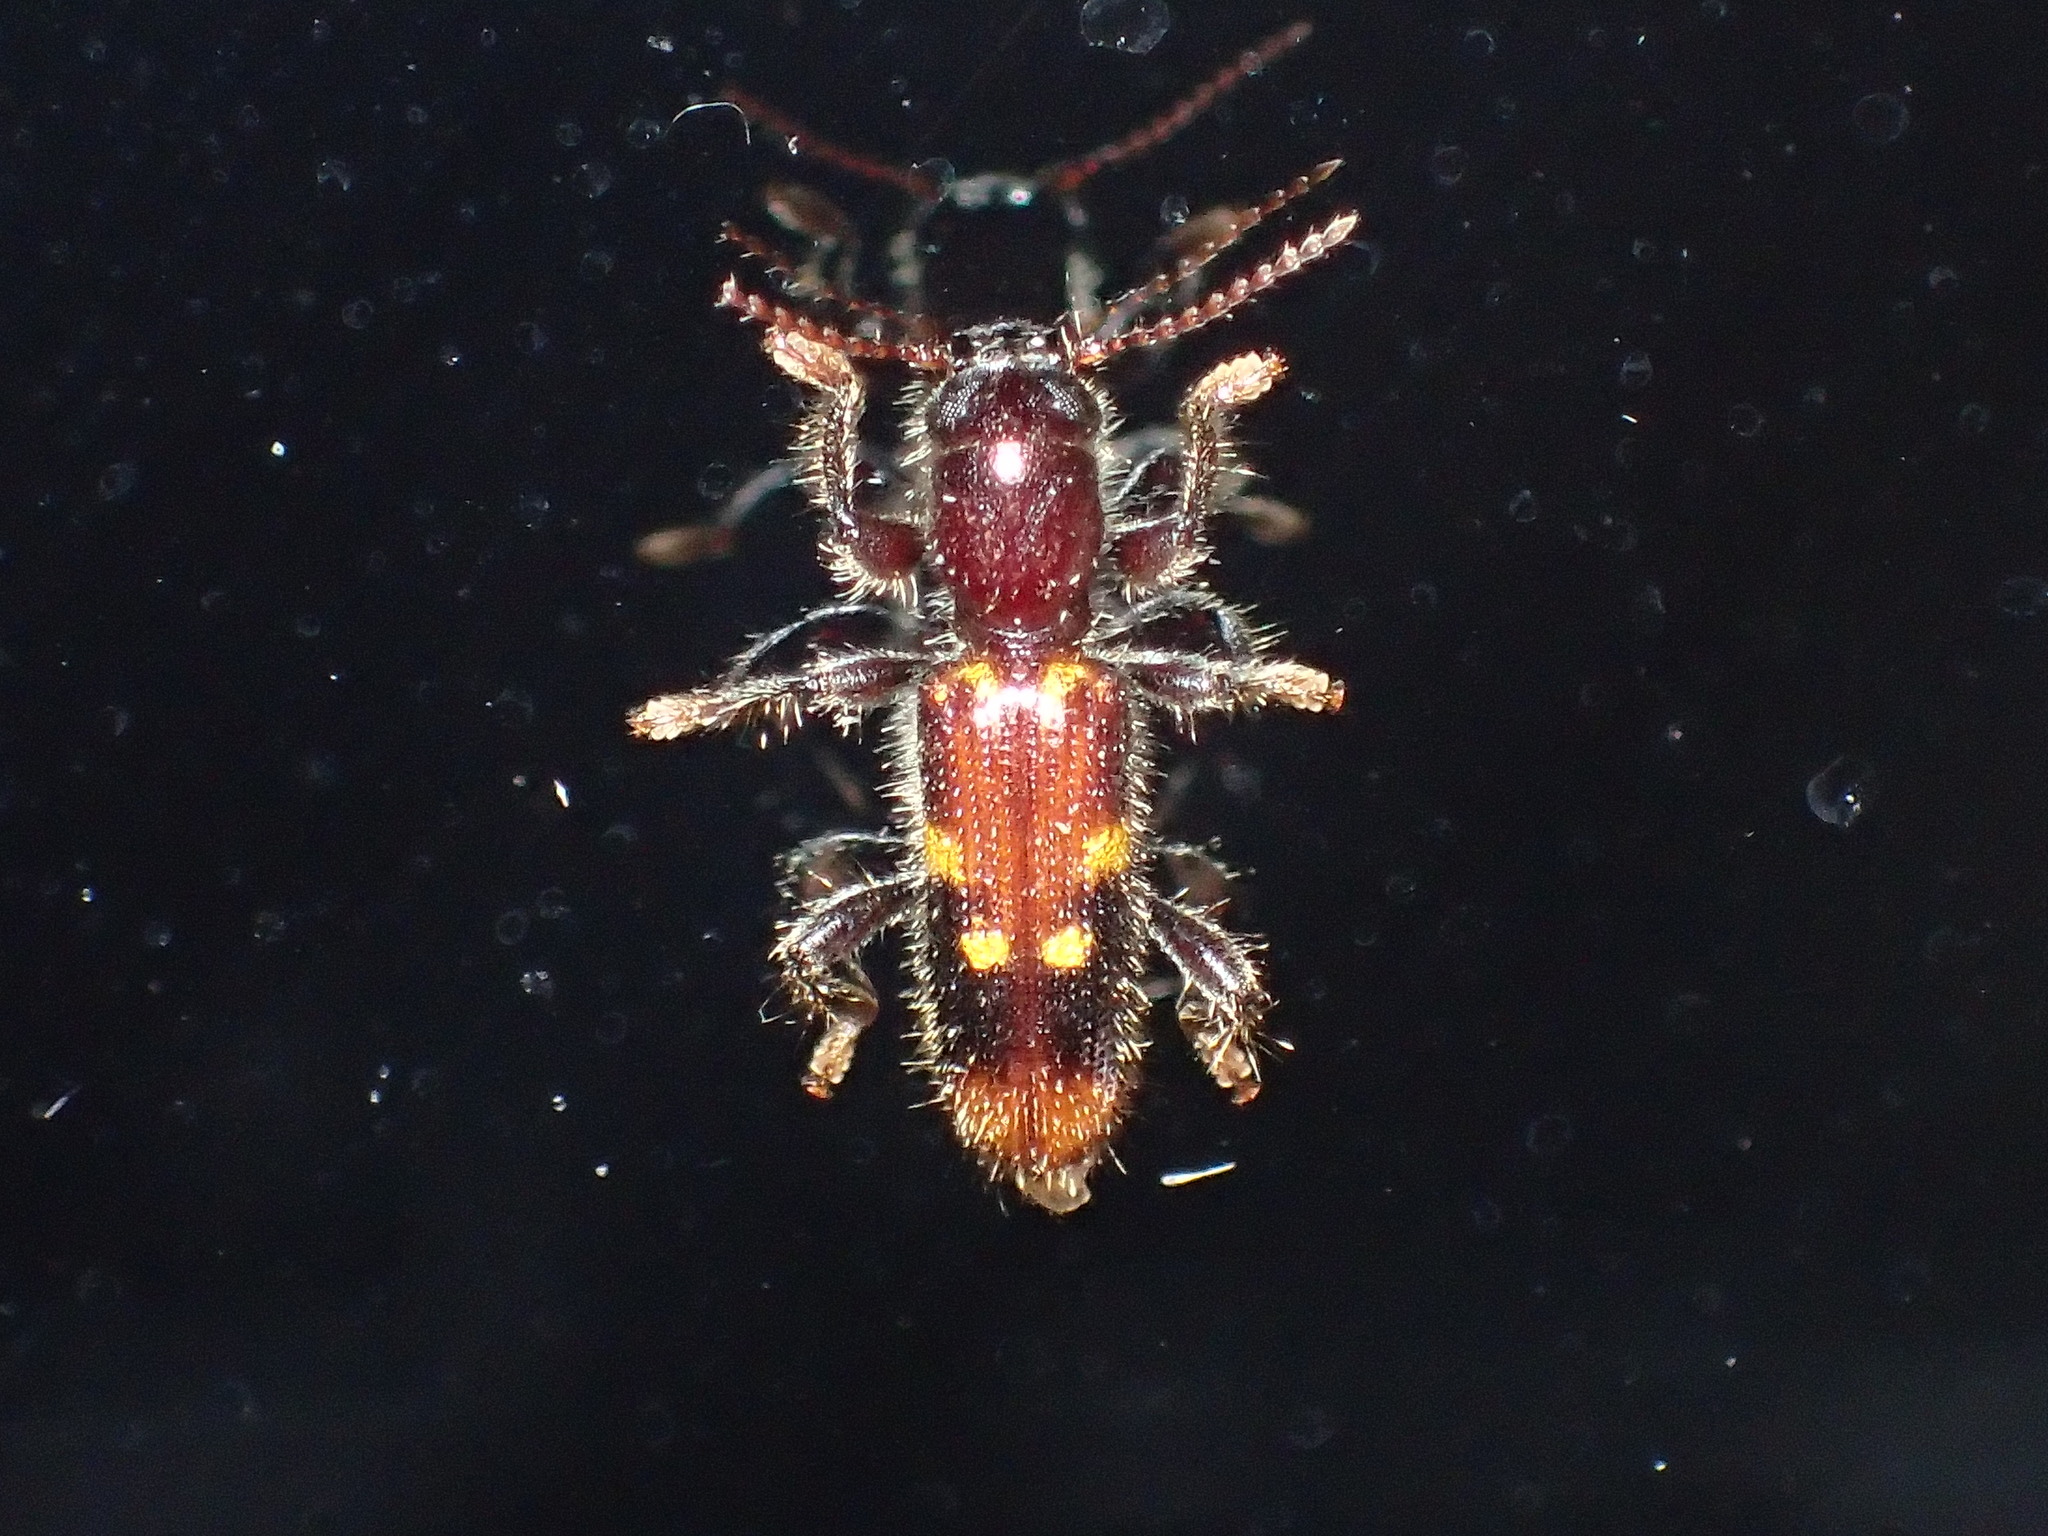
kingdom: Animalia
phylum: Arthropoda
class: Insecta
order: Coleoptera
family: Cleridae
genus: Priocera
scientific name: Priocera castanea
